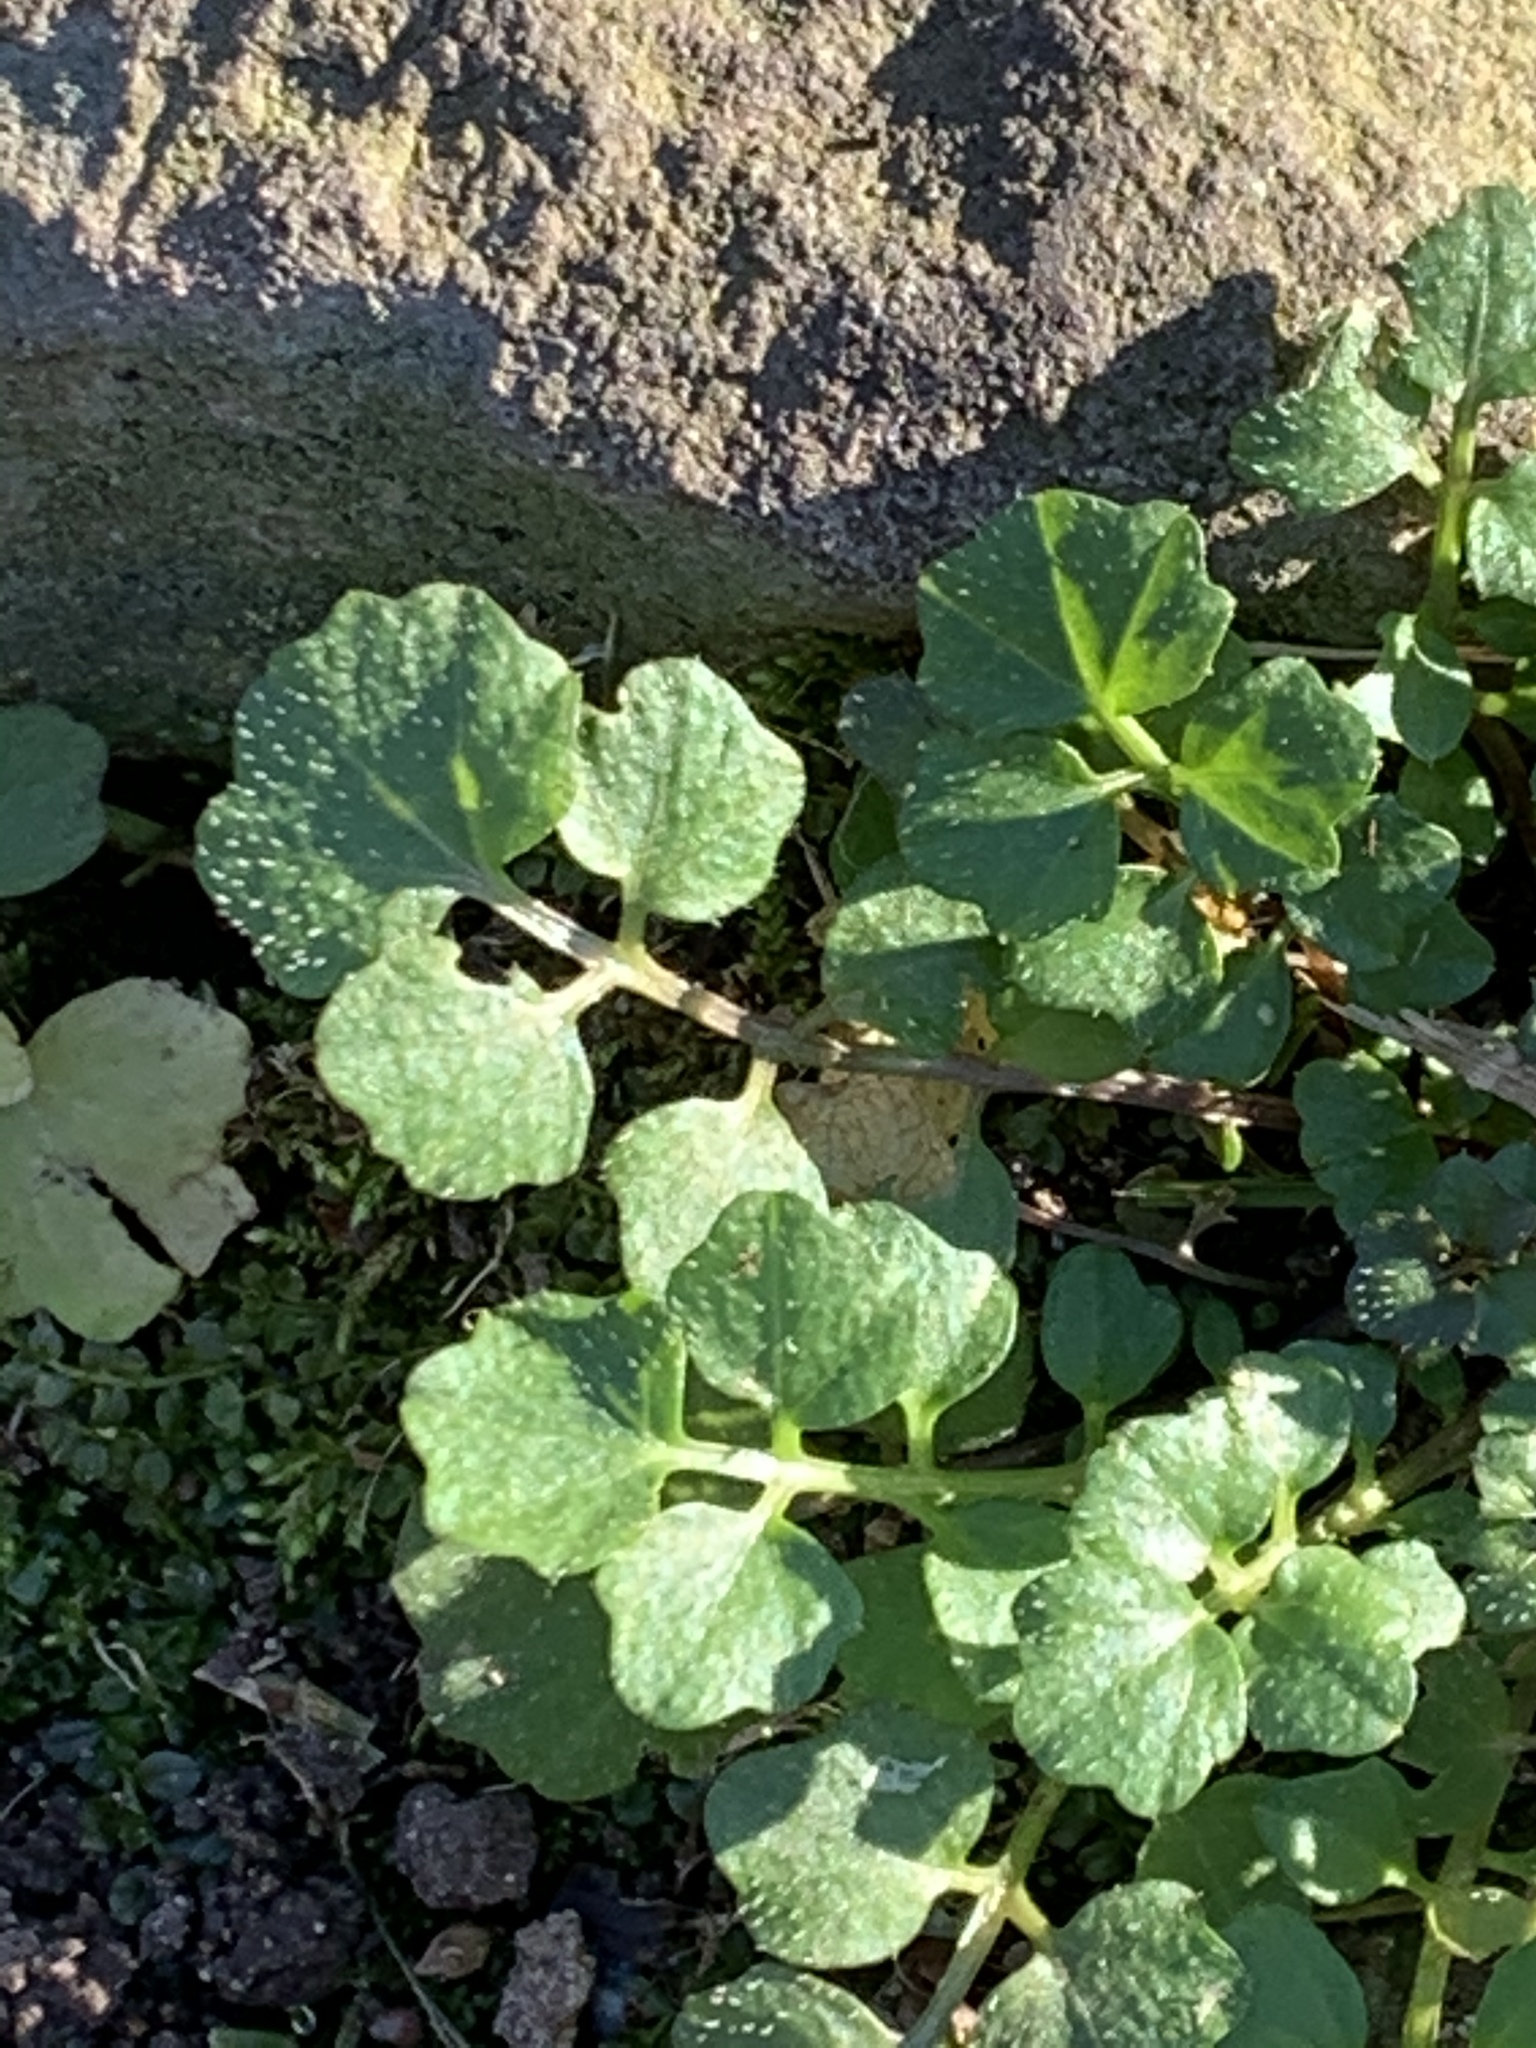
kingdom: Plantae
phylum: Tracheophyta
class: Magnoliopsida
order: Brassicales
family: Brassicaceae
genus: Cardamine
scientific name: Cardamine hirsuta
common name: Hairy bittercress
